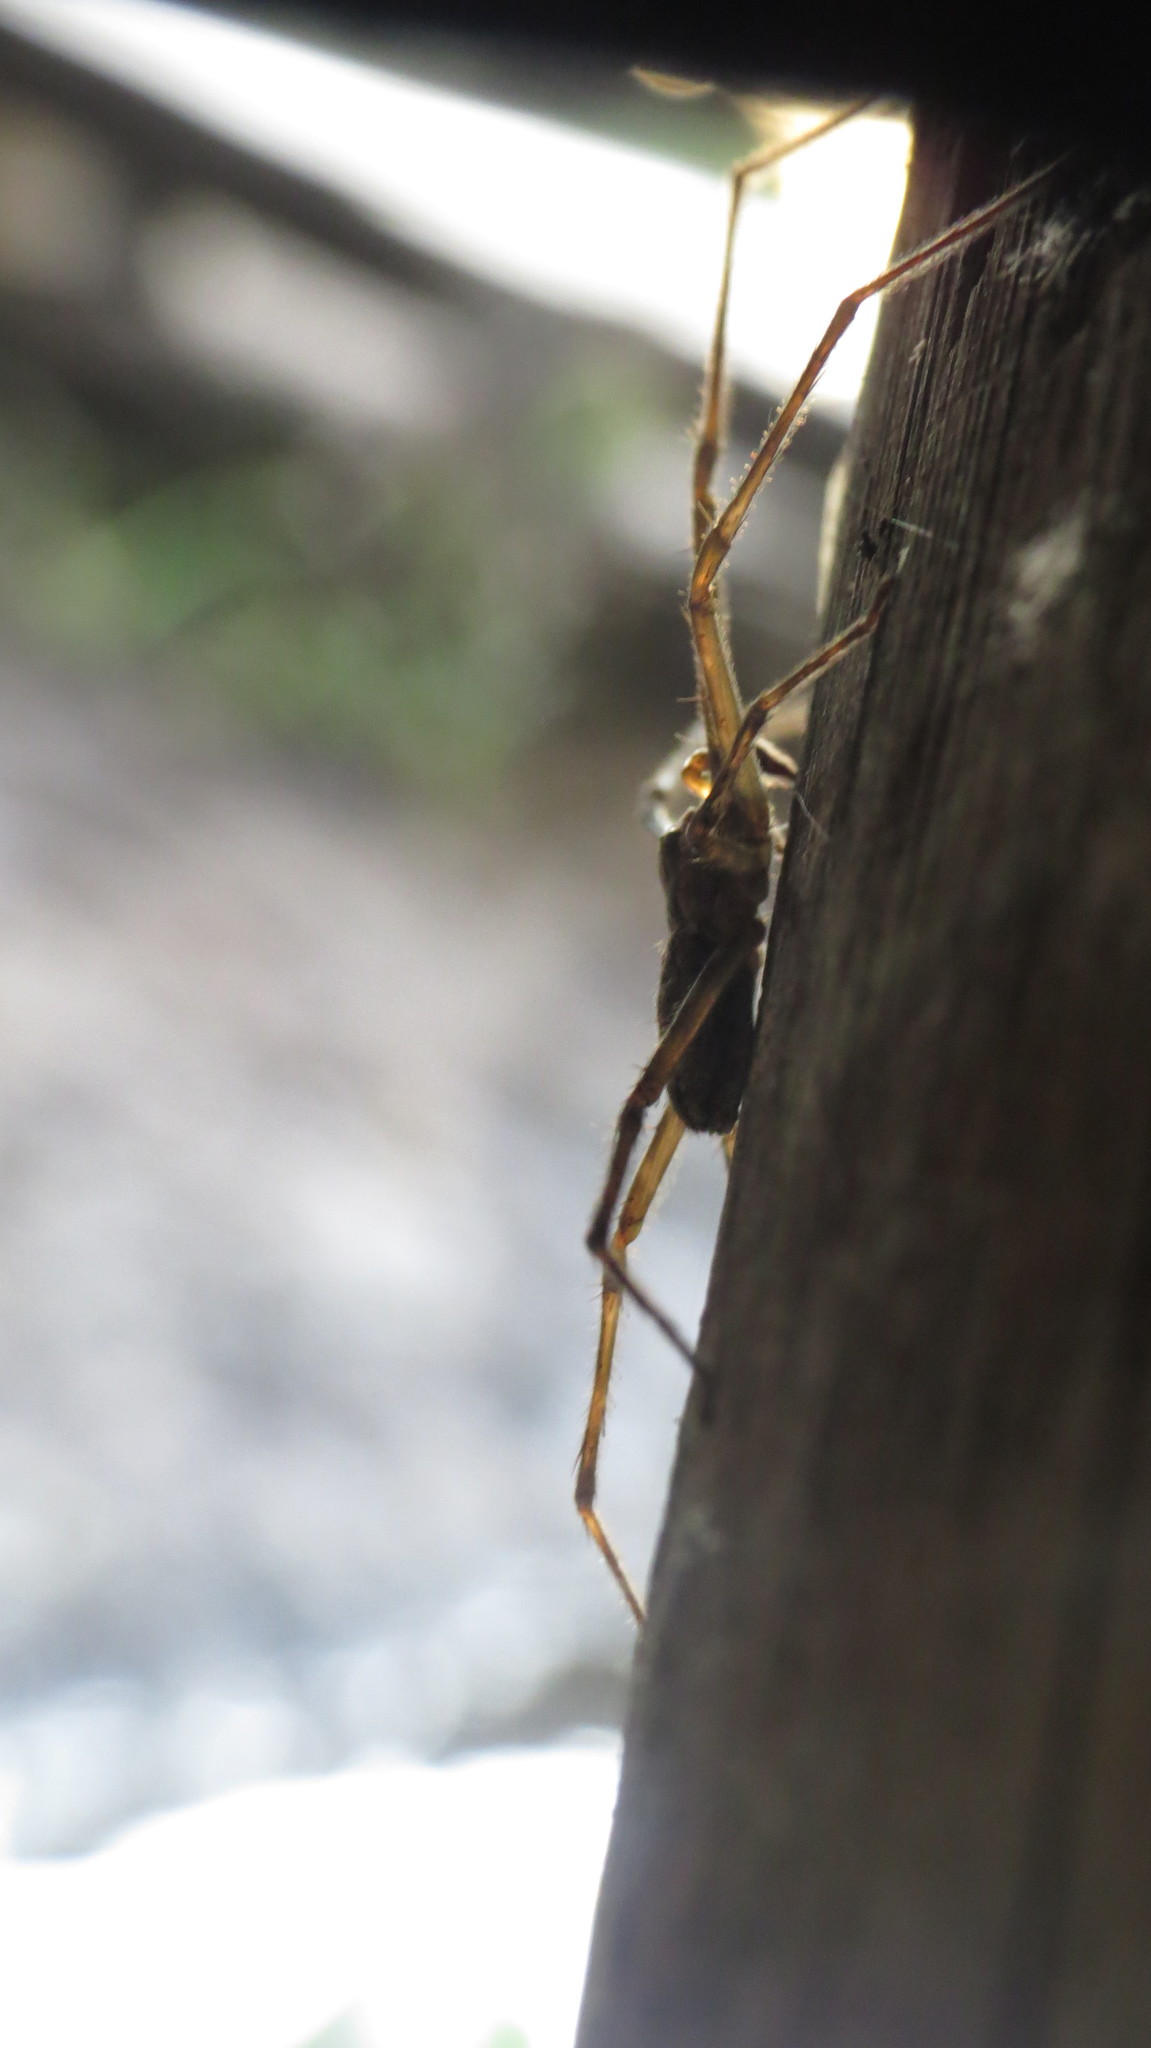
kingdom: Animalia
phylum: Arthropoda
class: Arachnida
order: Araneae
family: Trechaleidae
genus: Paradossenus
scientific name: Paradossenus longipes
